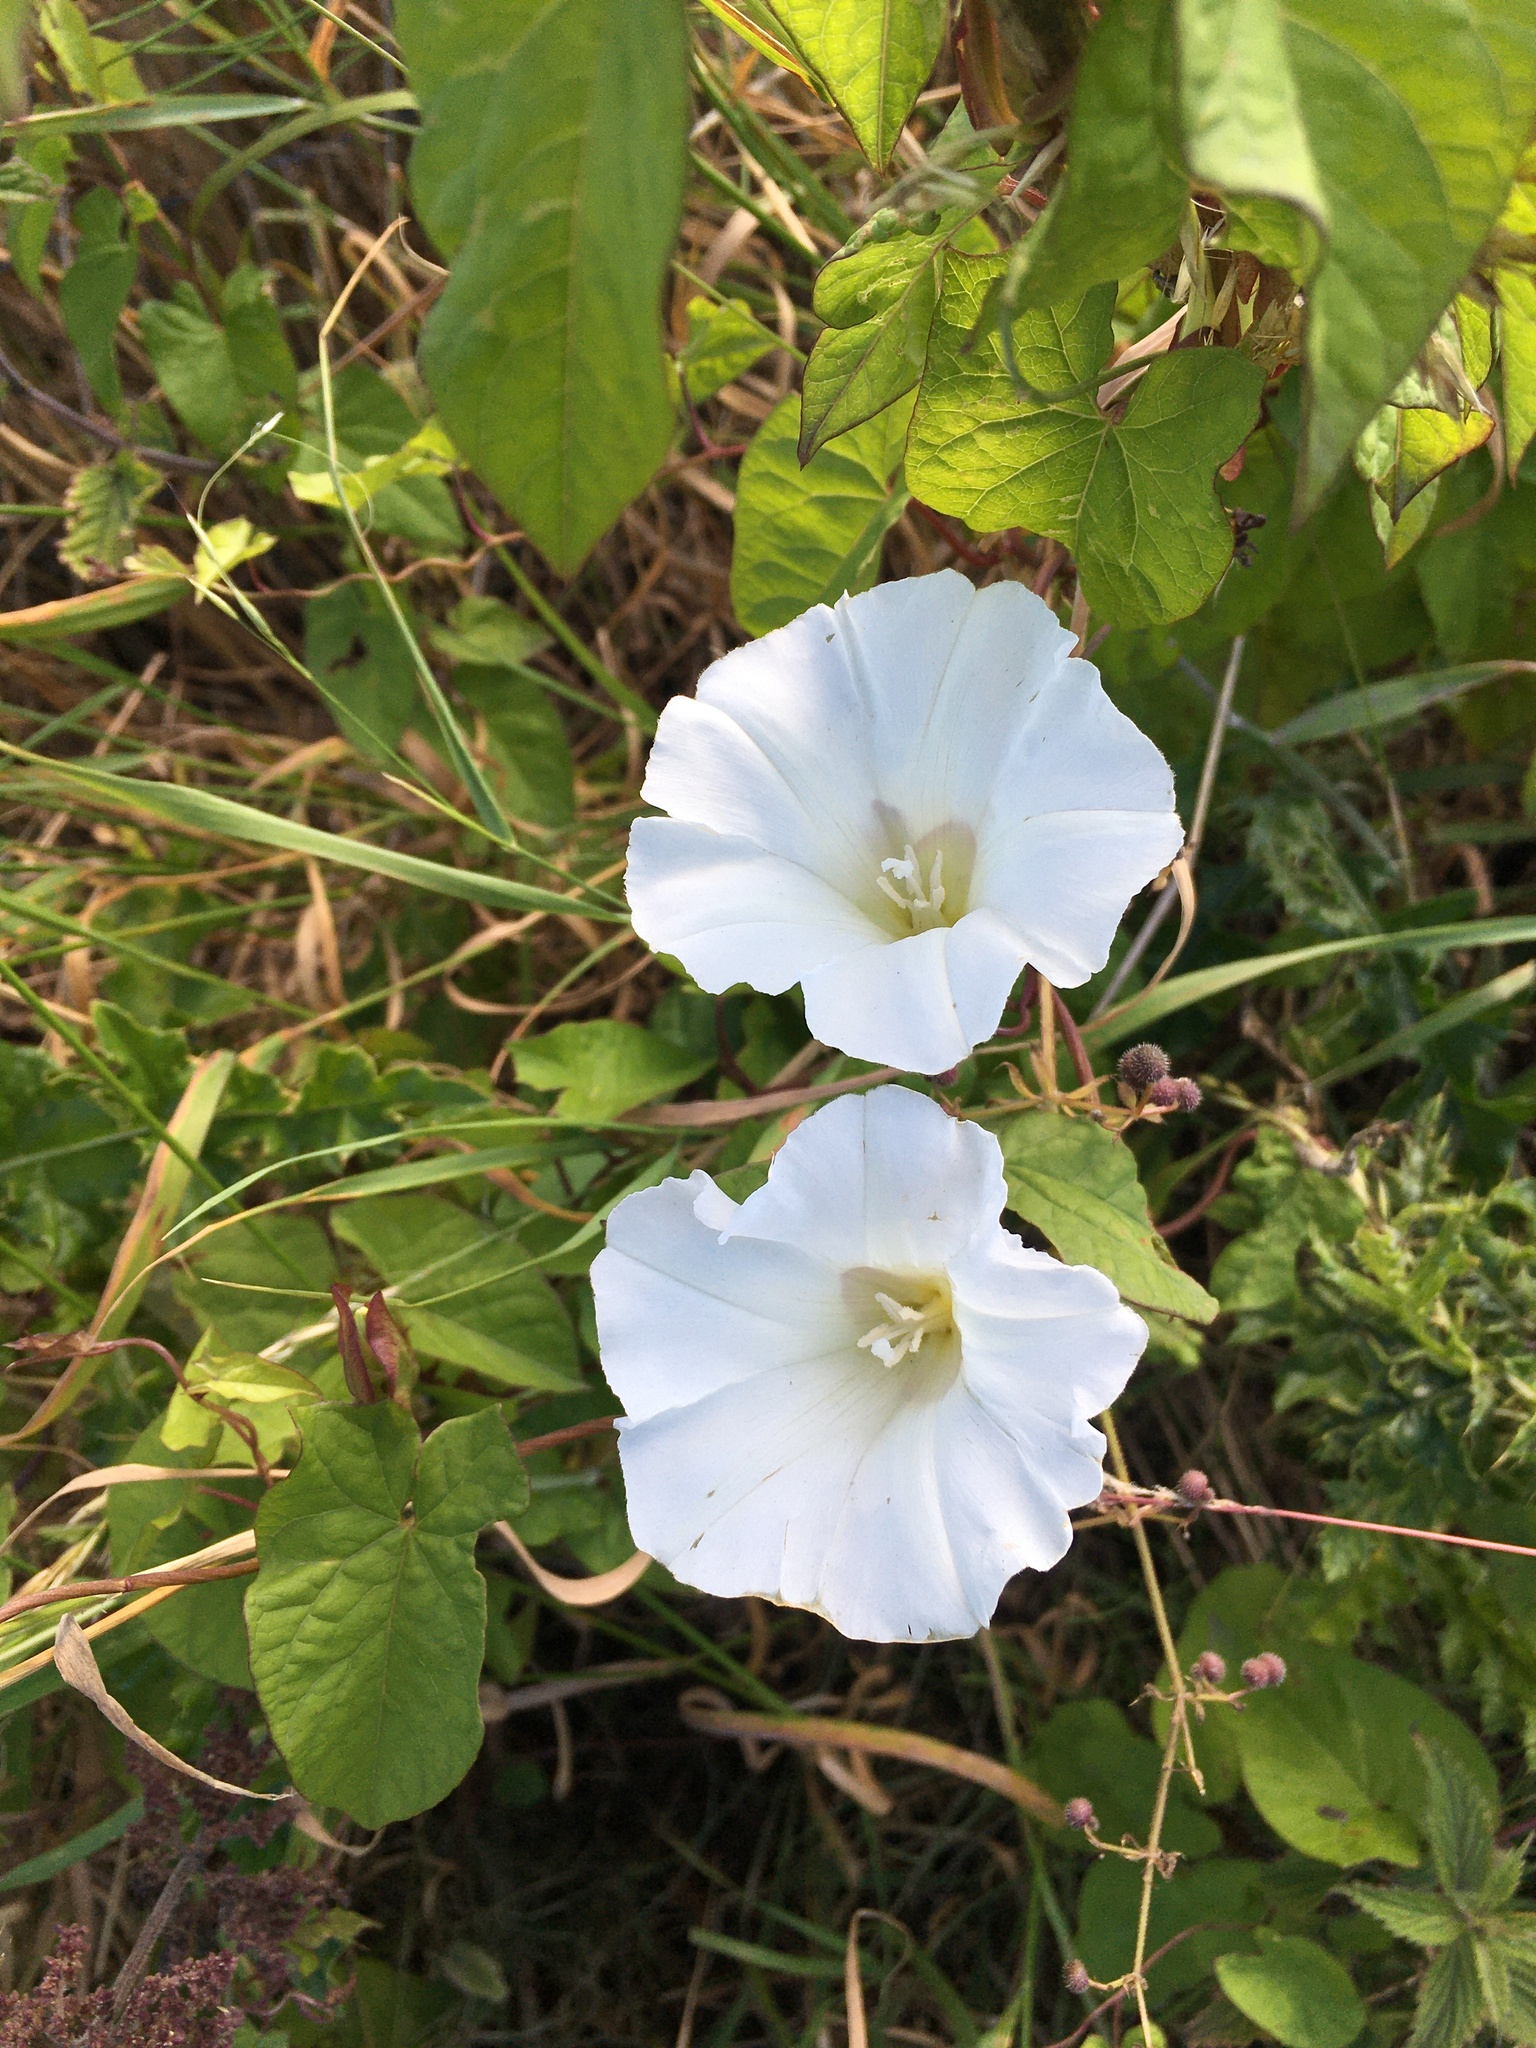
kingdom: Plantae
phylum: Tracheophyta
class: Magnoliopsida
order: Solanales
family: Convolvulaceae
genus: Calystegia
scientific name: Calystegia sepium
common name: Hedge bindweed
